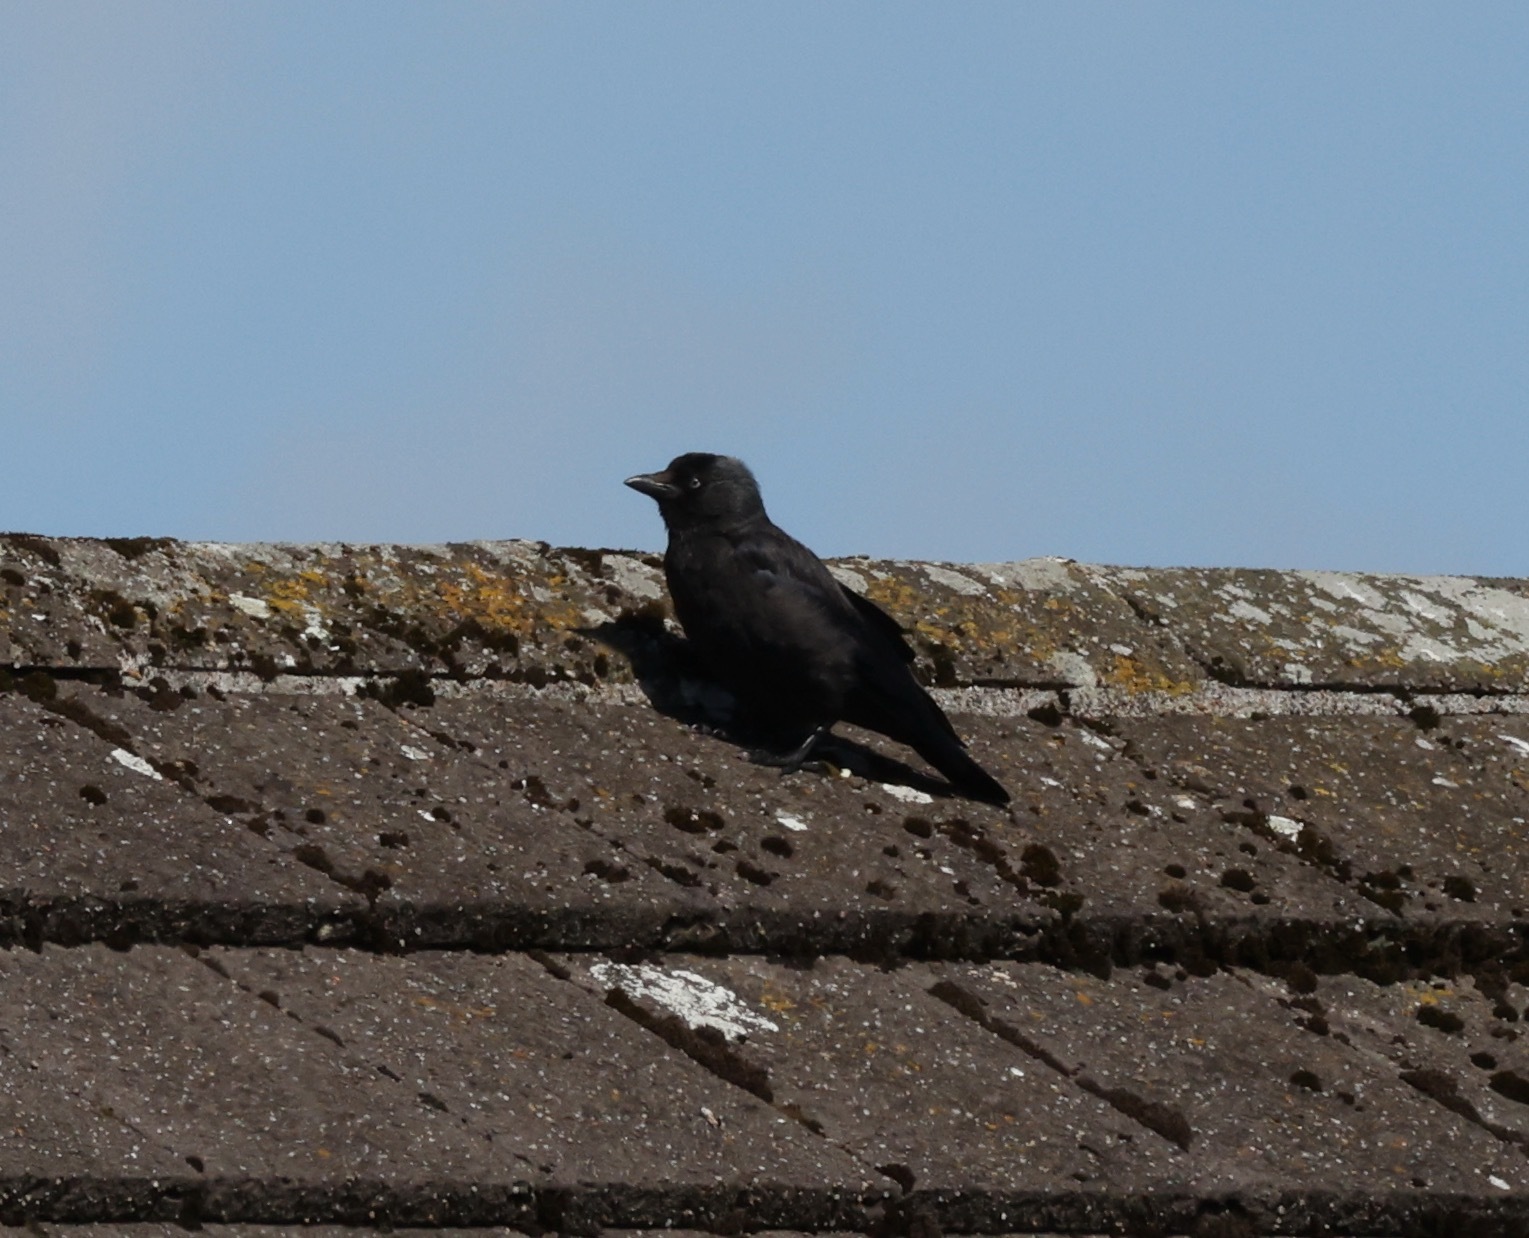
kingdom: Animalia
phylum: Chordata
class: Aves
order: Passeriformes
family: Corvidae
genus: Coloeus
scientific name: Coloeus monedula
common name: Western jackdaw
